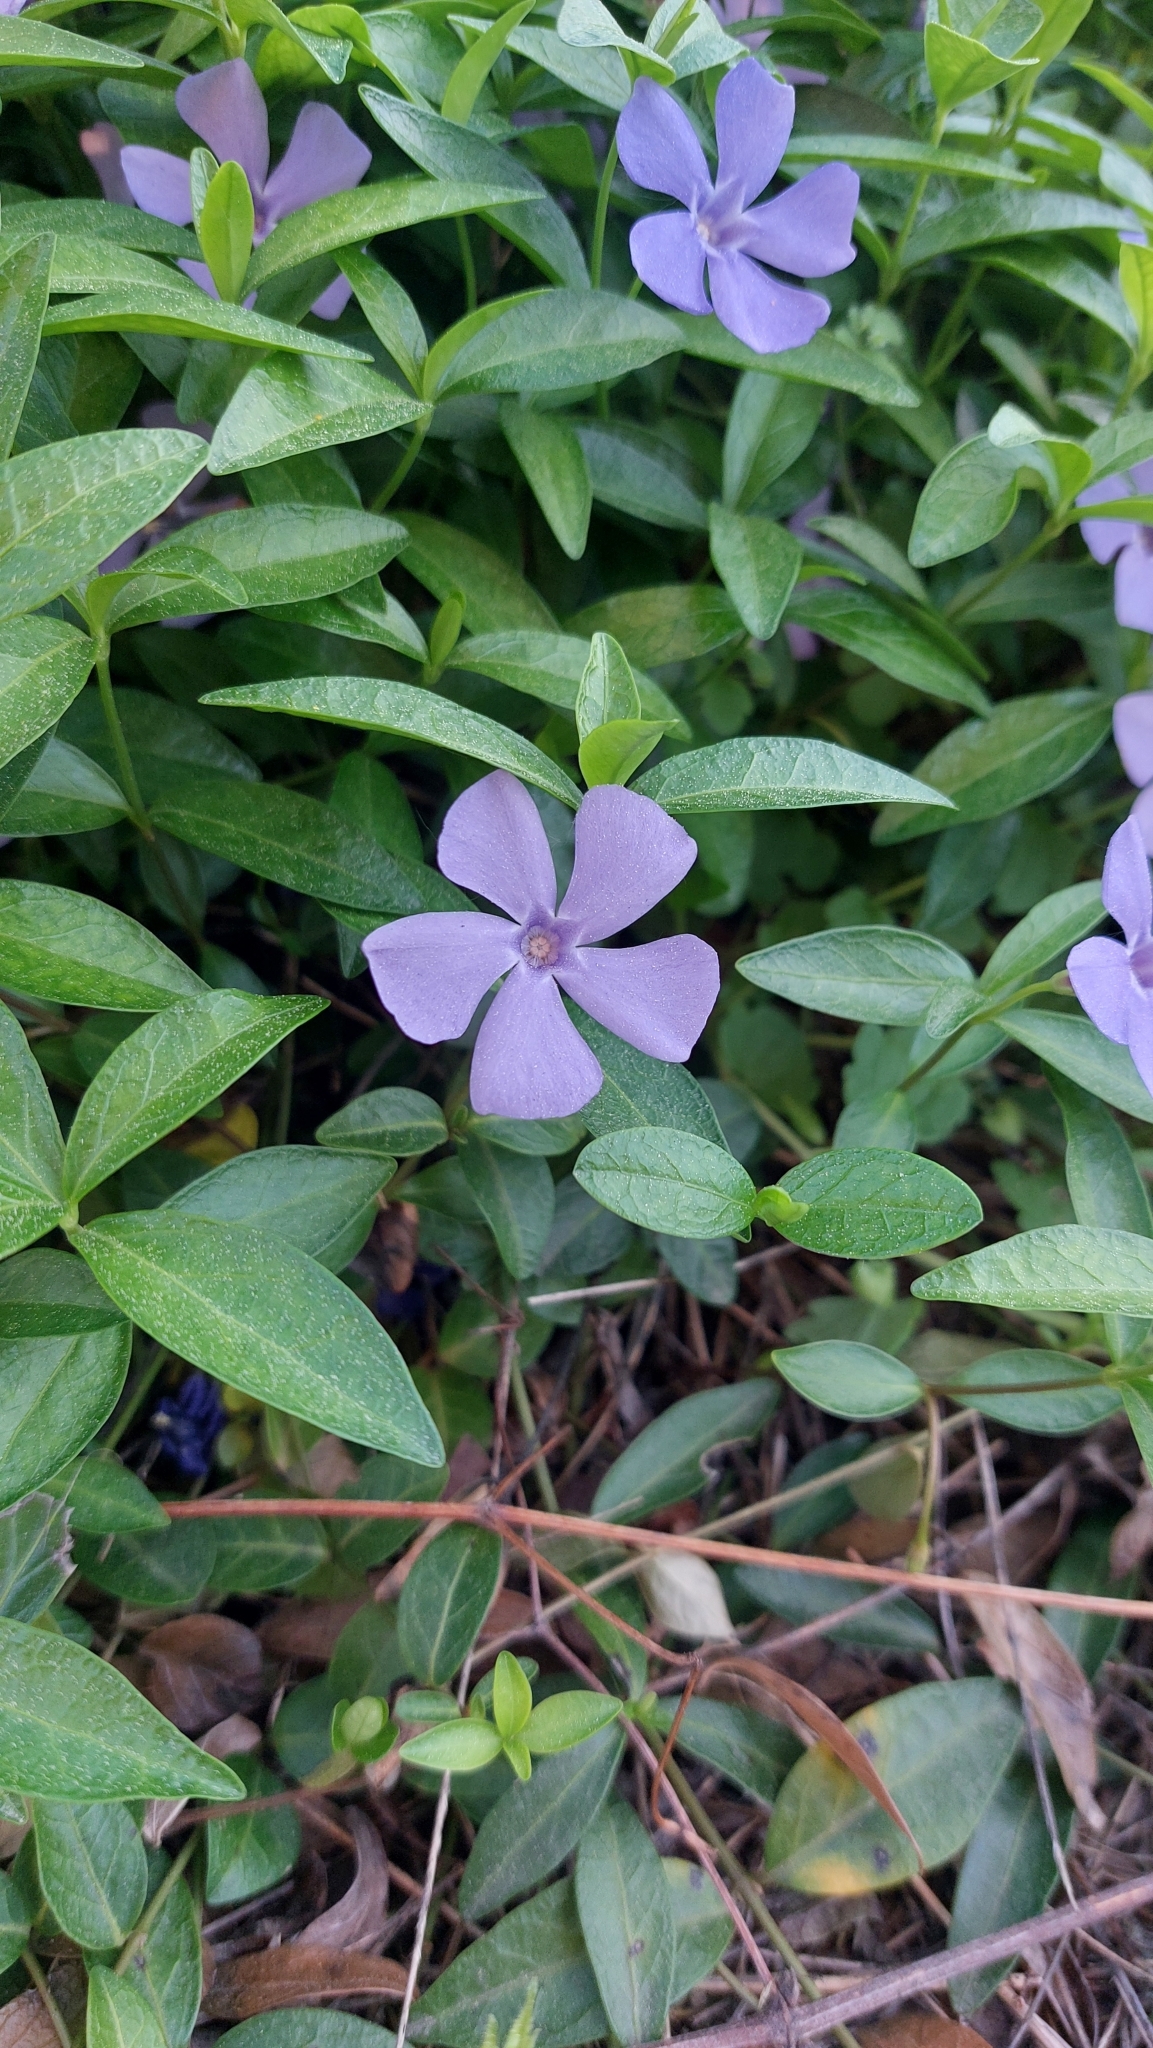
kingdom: Plantae
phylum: Tracheophyta
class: Magnoliopsida
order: Gentianales
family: Apocynaceae
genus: Vinca
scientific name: Vinca minor
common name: Lesser periwinkle
